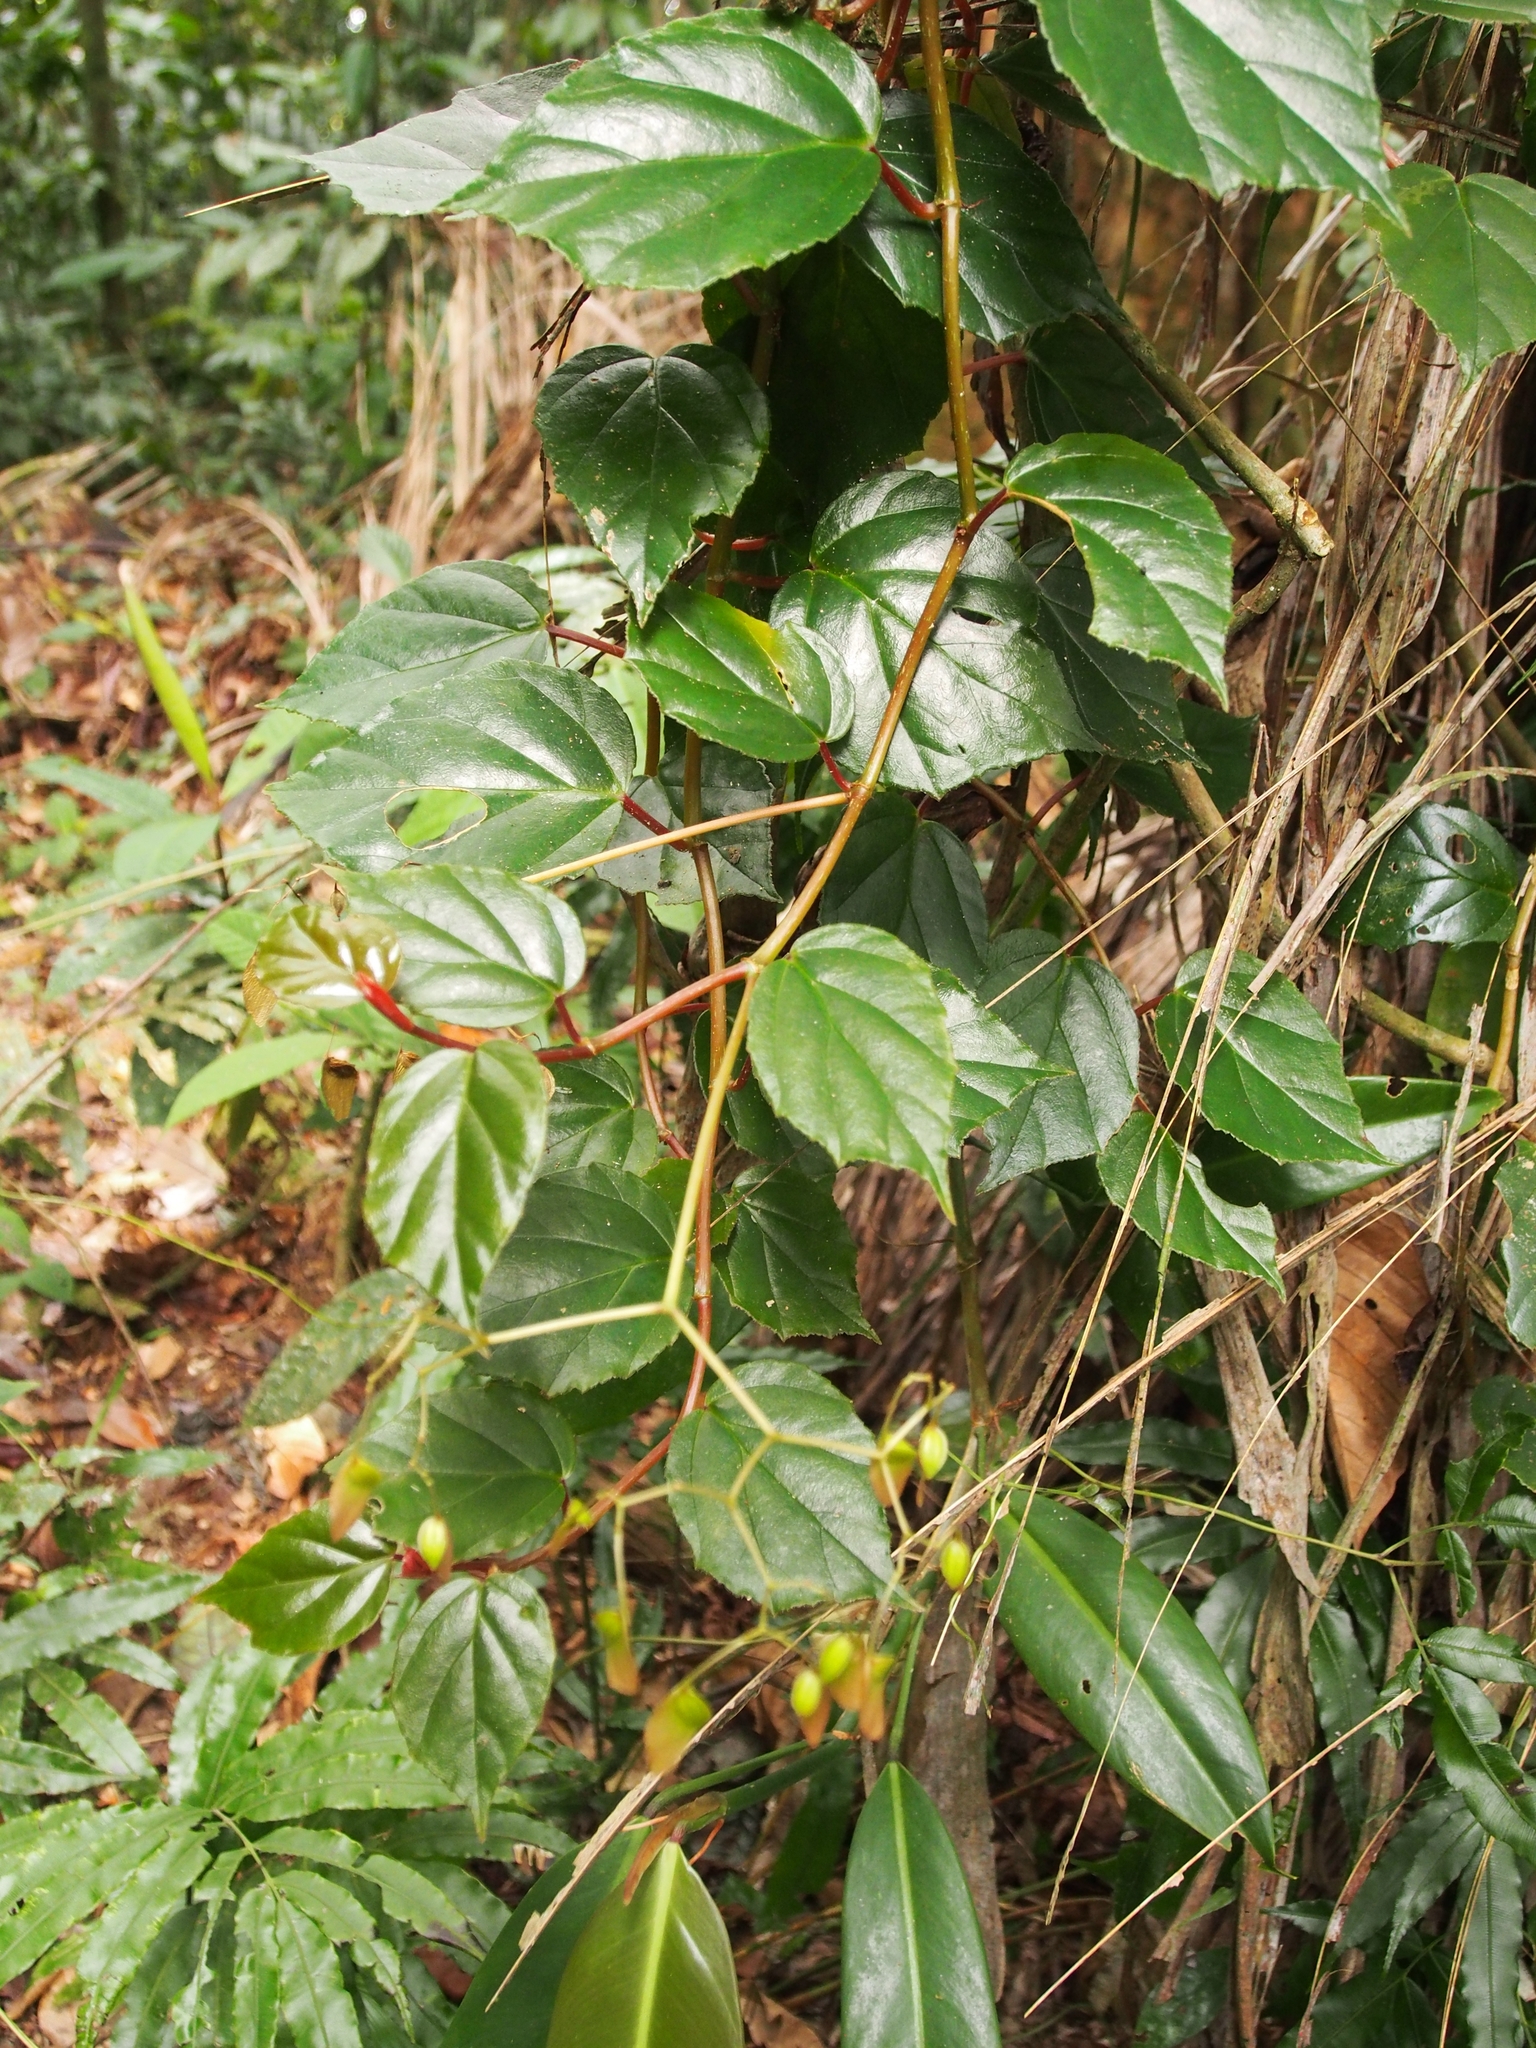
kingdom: Plantae
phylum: Tracheophyta
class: Magnoliopsida
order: Cucurbitales
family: Begoniaceae
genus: Begonia
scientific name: Begonia glabra
